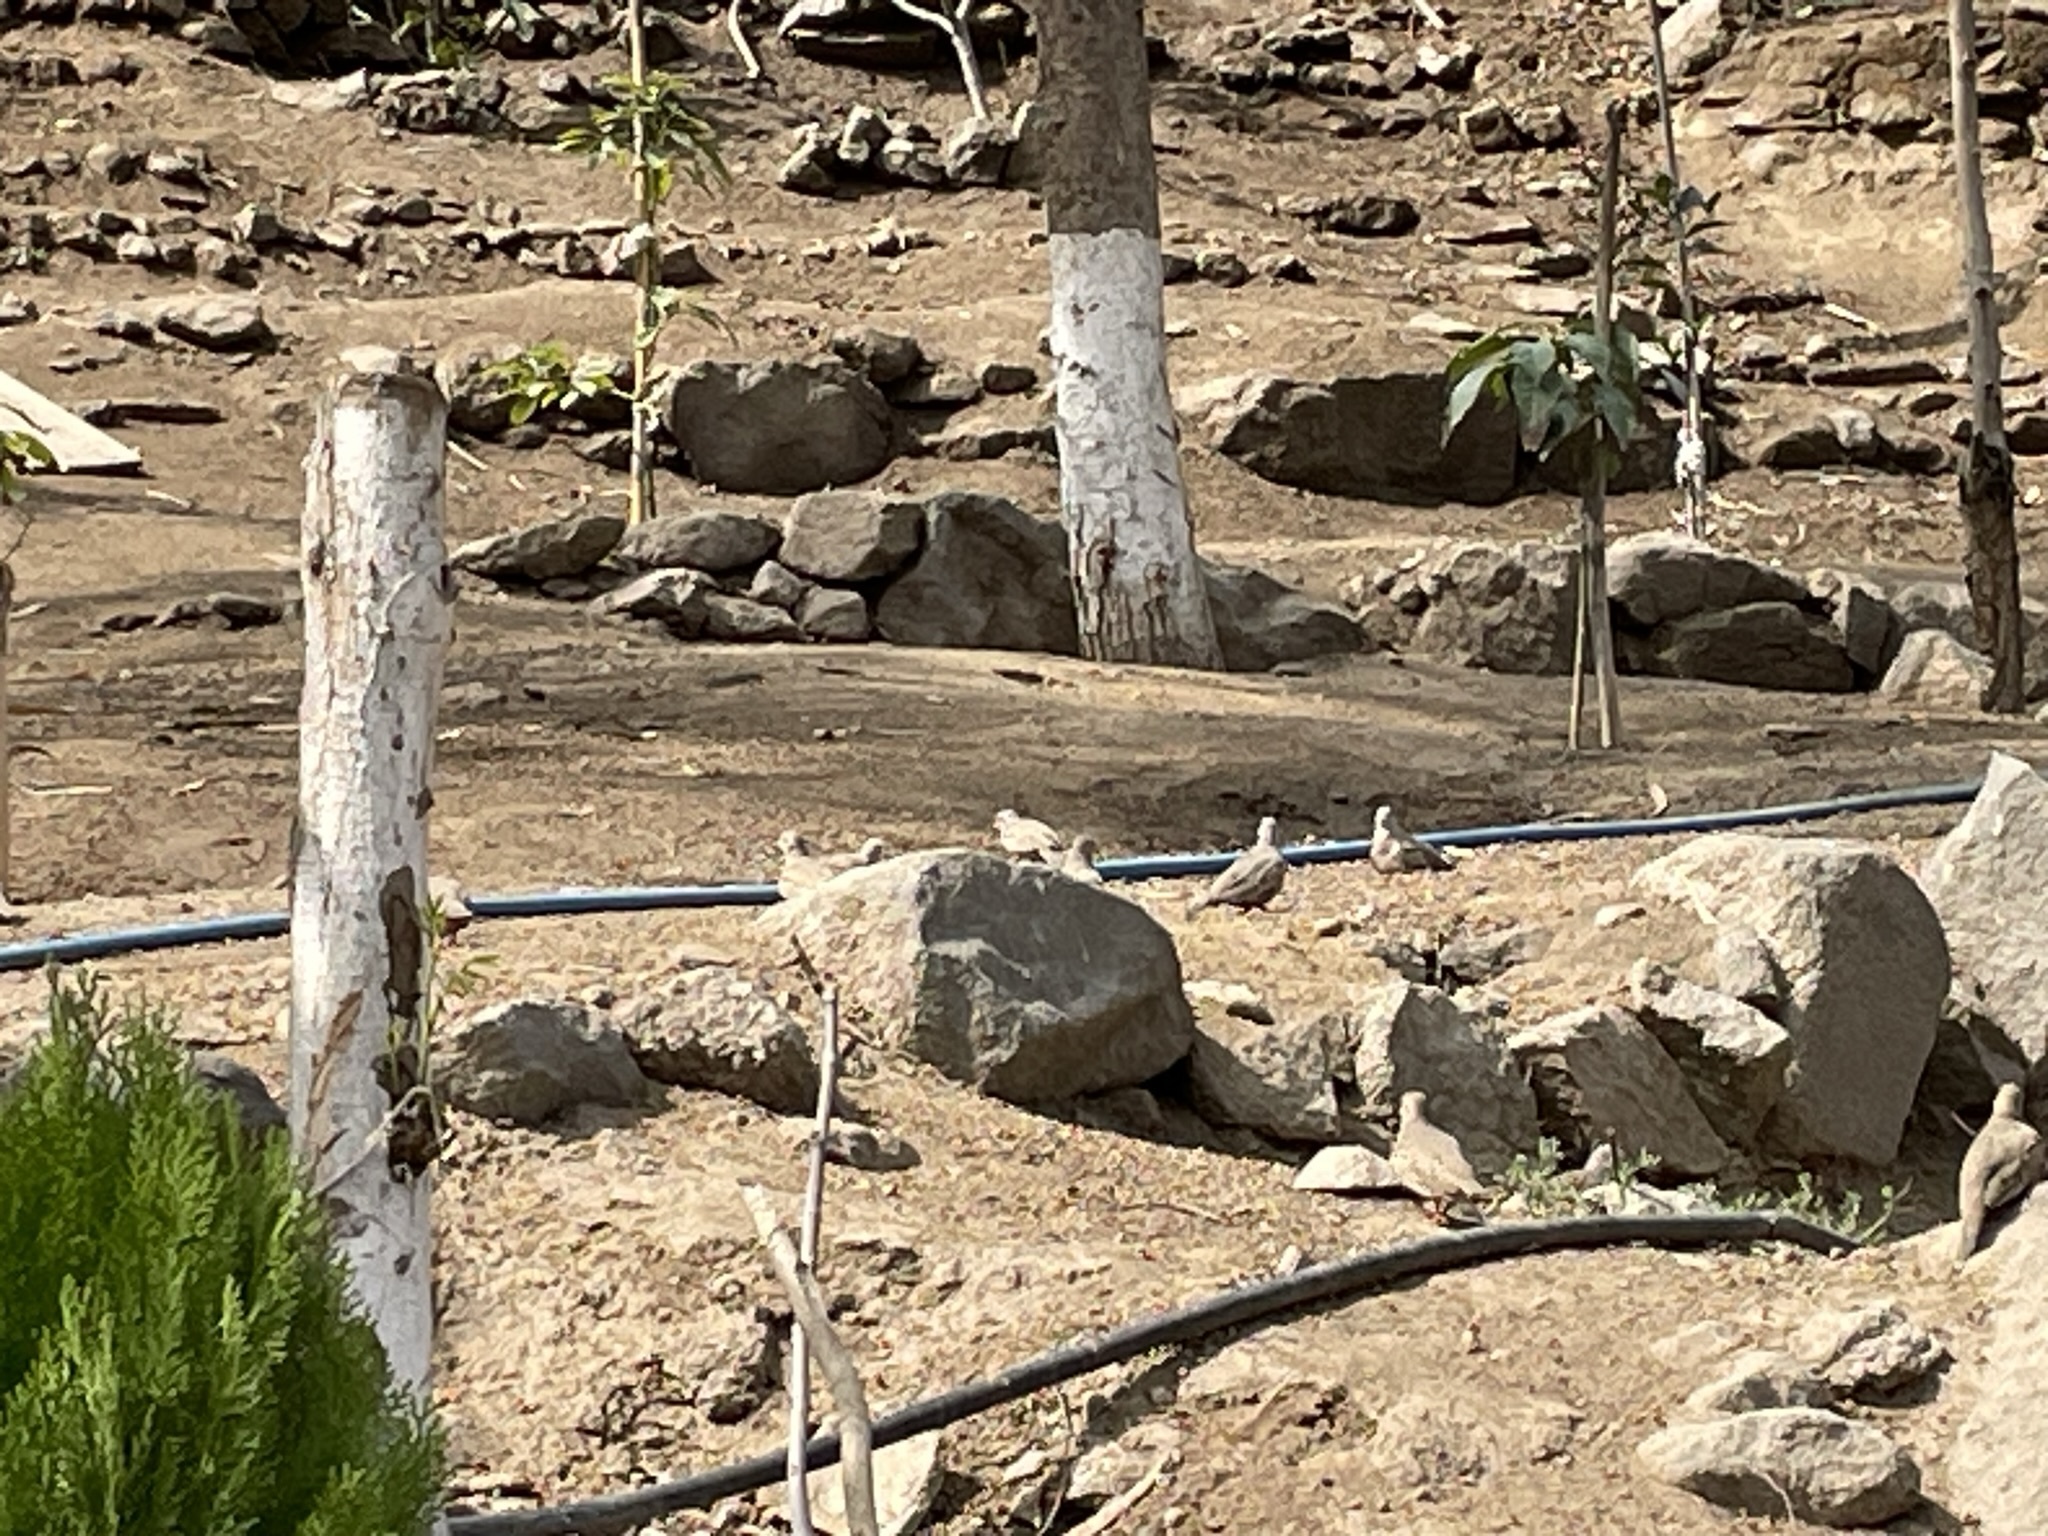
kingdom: Animalia
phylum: Chordata
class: Aves
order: Columbiformes
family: Columbidae
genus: Columbina
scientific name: Columbina cruziana
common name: Croaking ground dove
